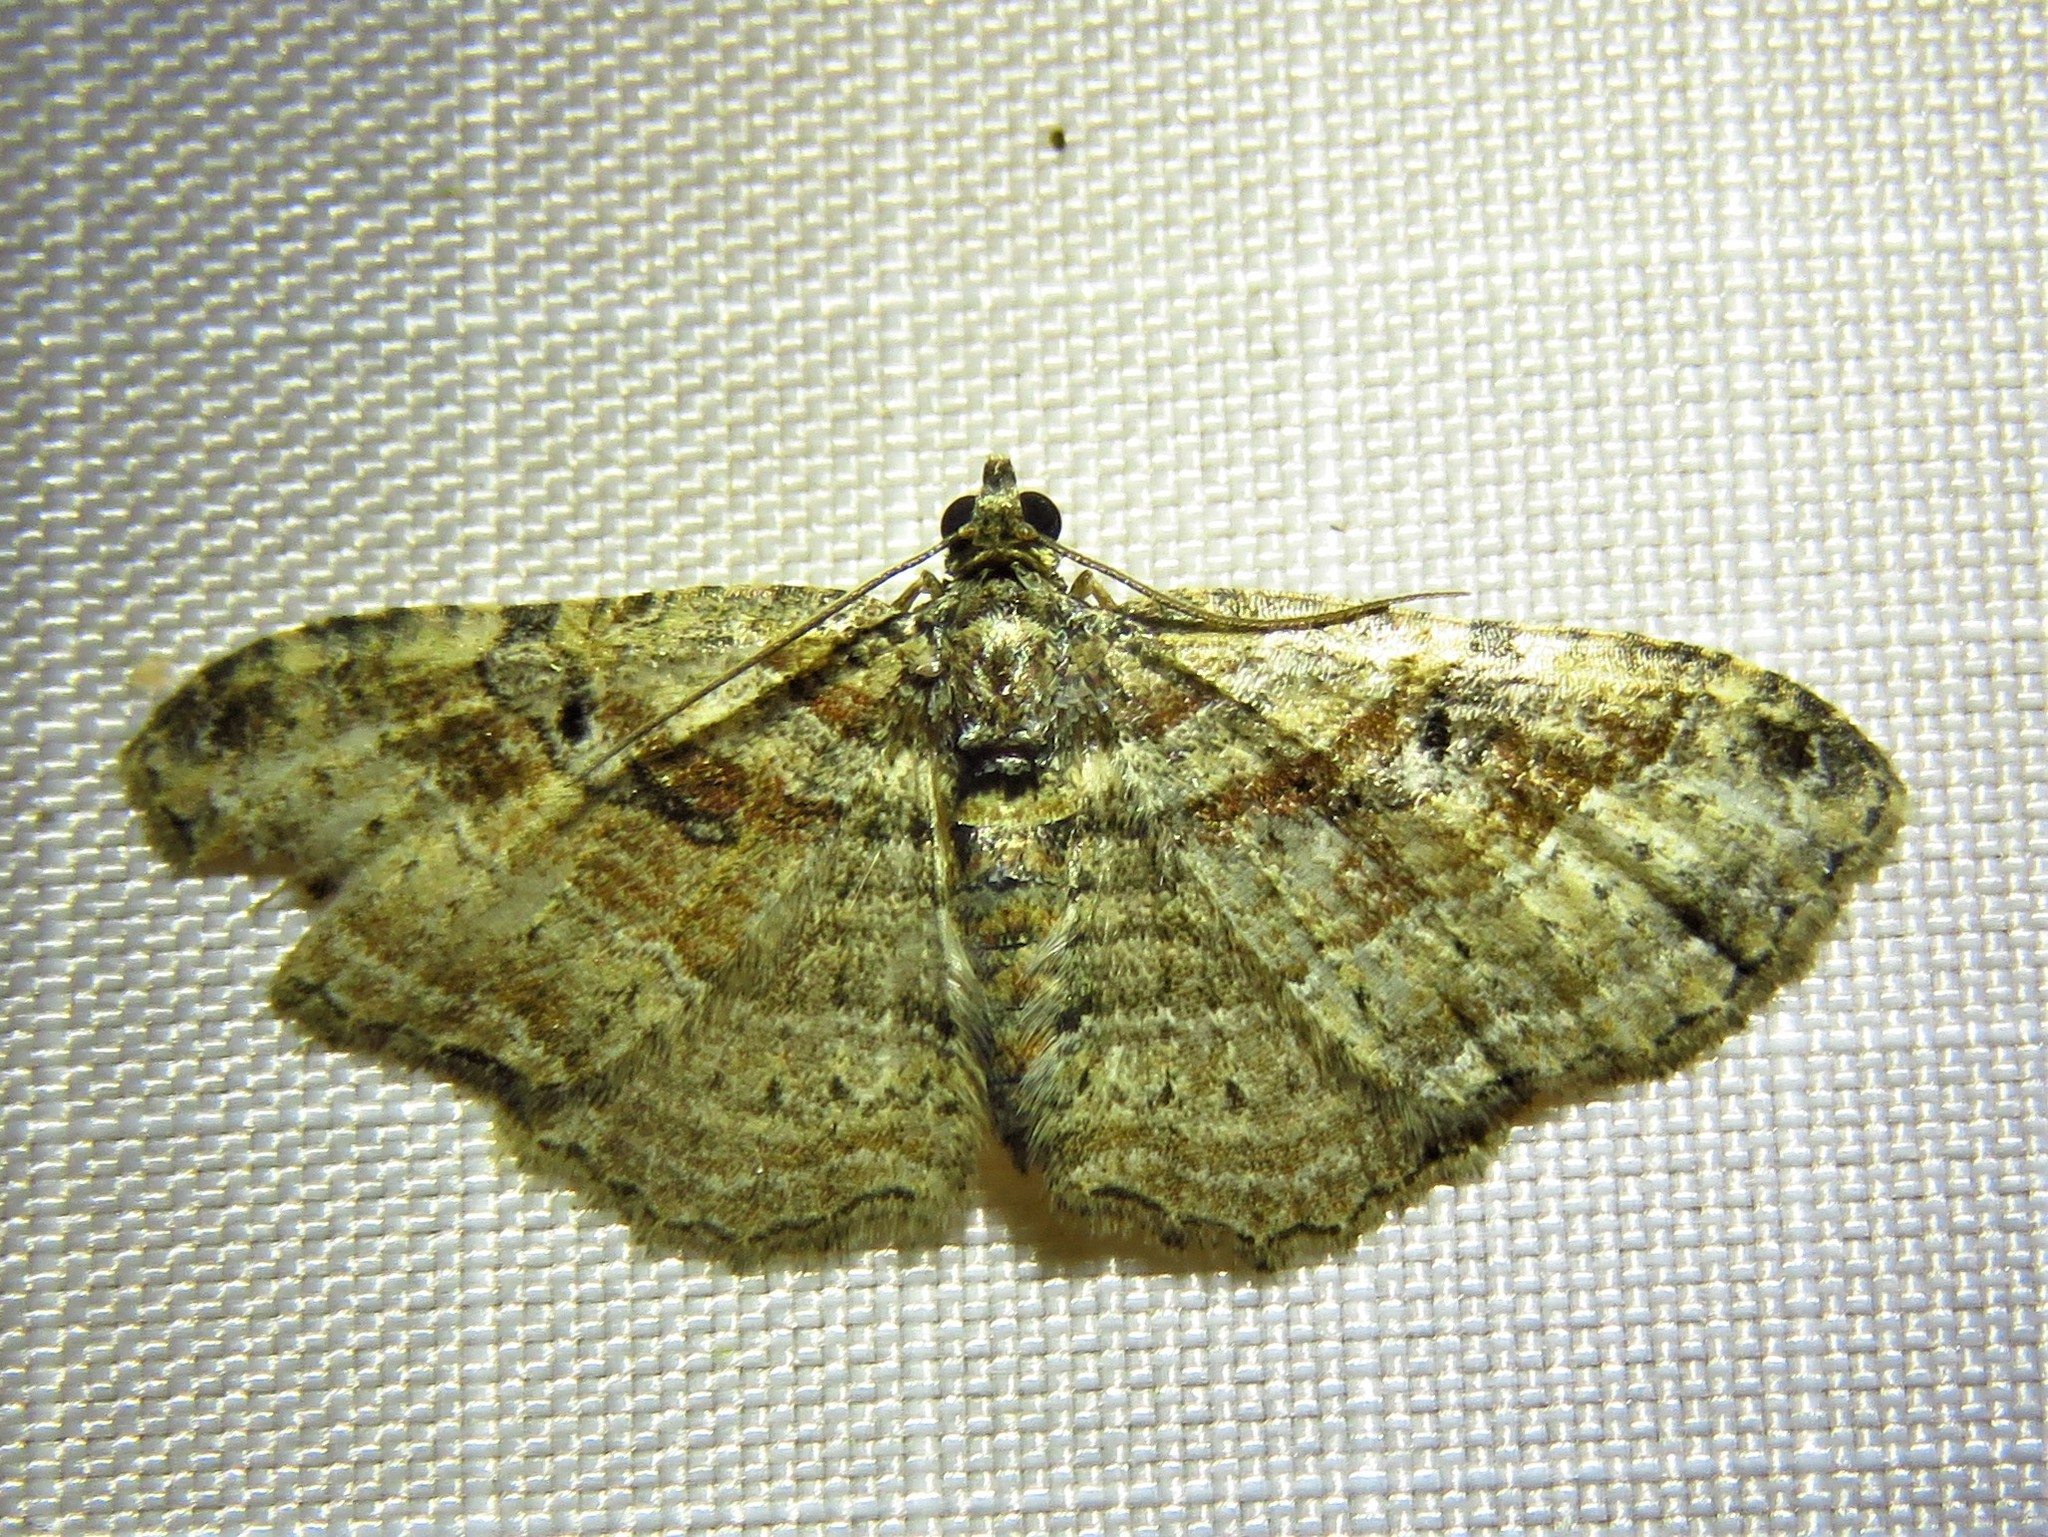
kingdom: Animalia
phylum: Arthropoda
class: Insecta
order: Lepidoptera
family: Geometridae
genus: Costaconvexa
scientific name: Costaconvexa centrostrigaria
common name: Bent-line carpet
